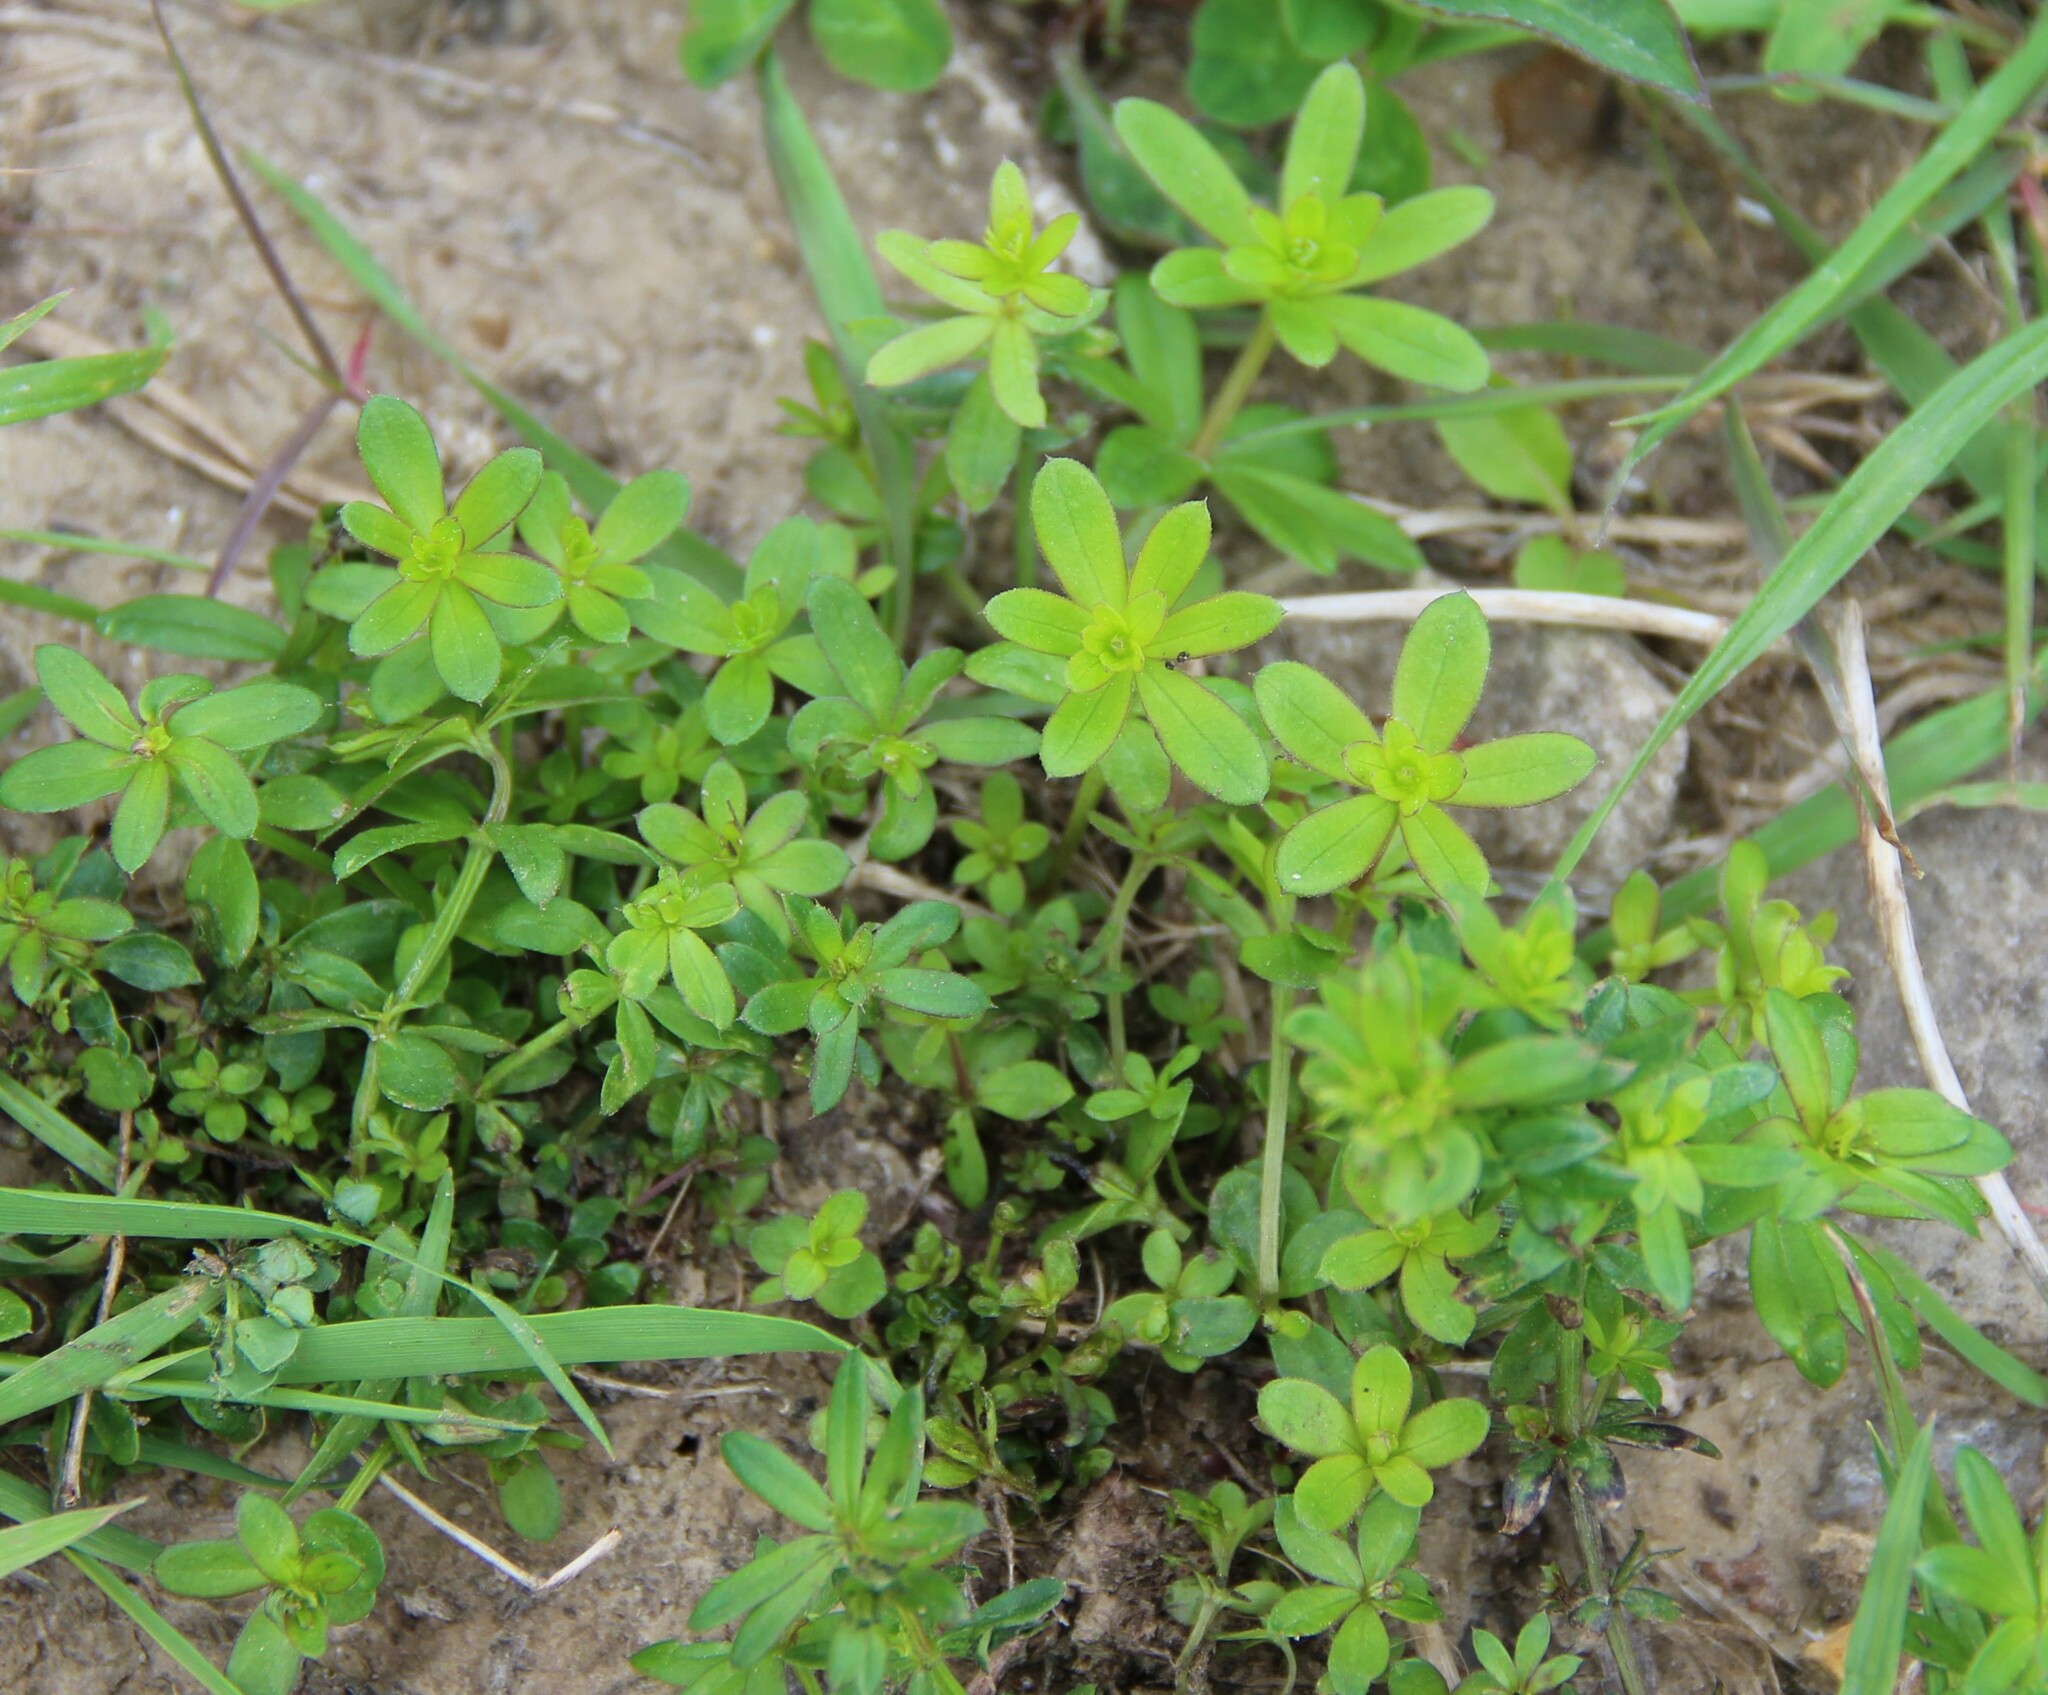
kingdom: Plantae
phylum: Tracheophyta
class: Magnoliopsida
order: Gentianales
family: Rubiaceae
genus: Galium
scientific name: Galium mollugo
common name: Hedge bedstraw
